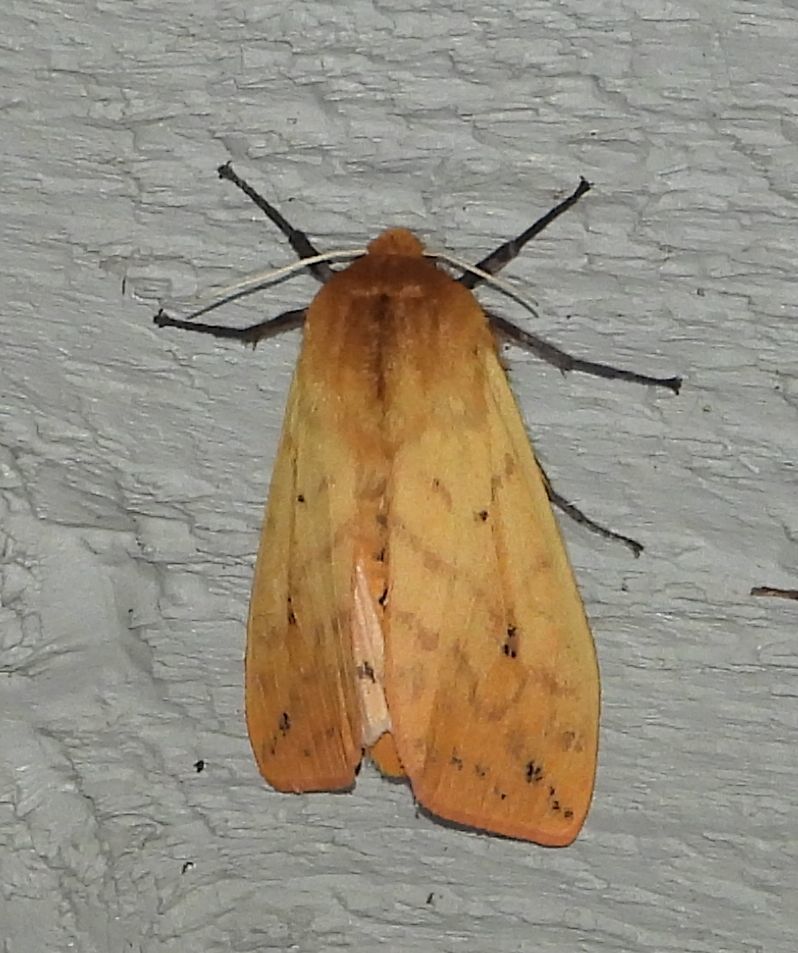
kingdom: Animalia
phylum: Arthropoda
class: Insecta
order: Lepidoptera
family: Erebidae
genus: Pyrrharctia
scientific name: Pyrrharctia isabella
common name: Isabella tiger moth
